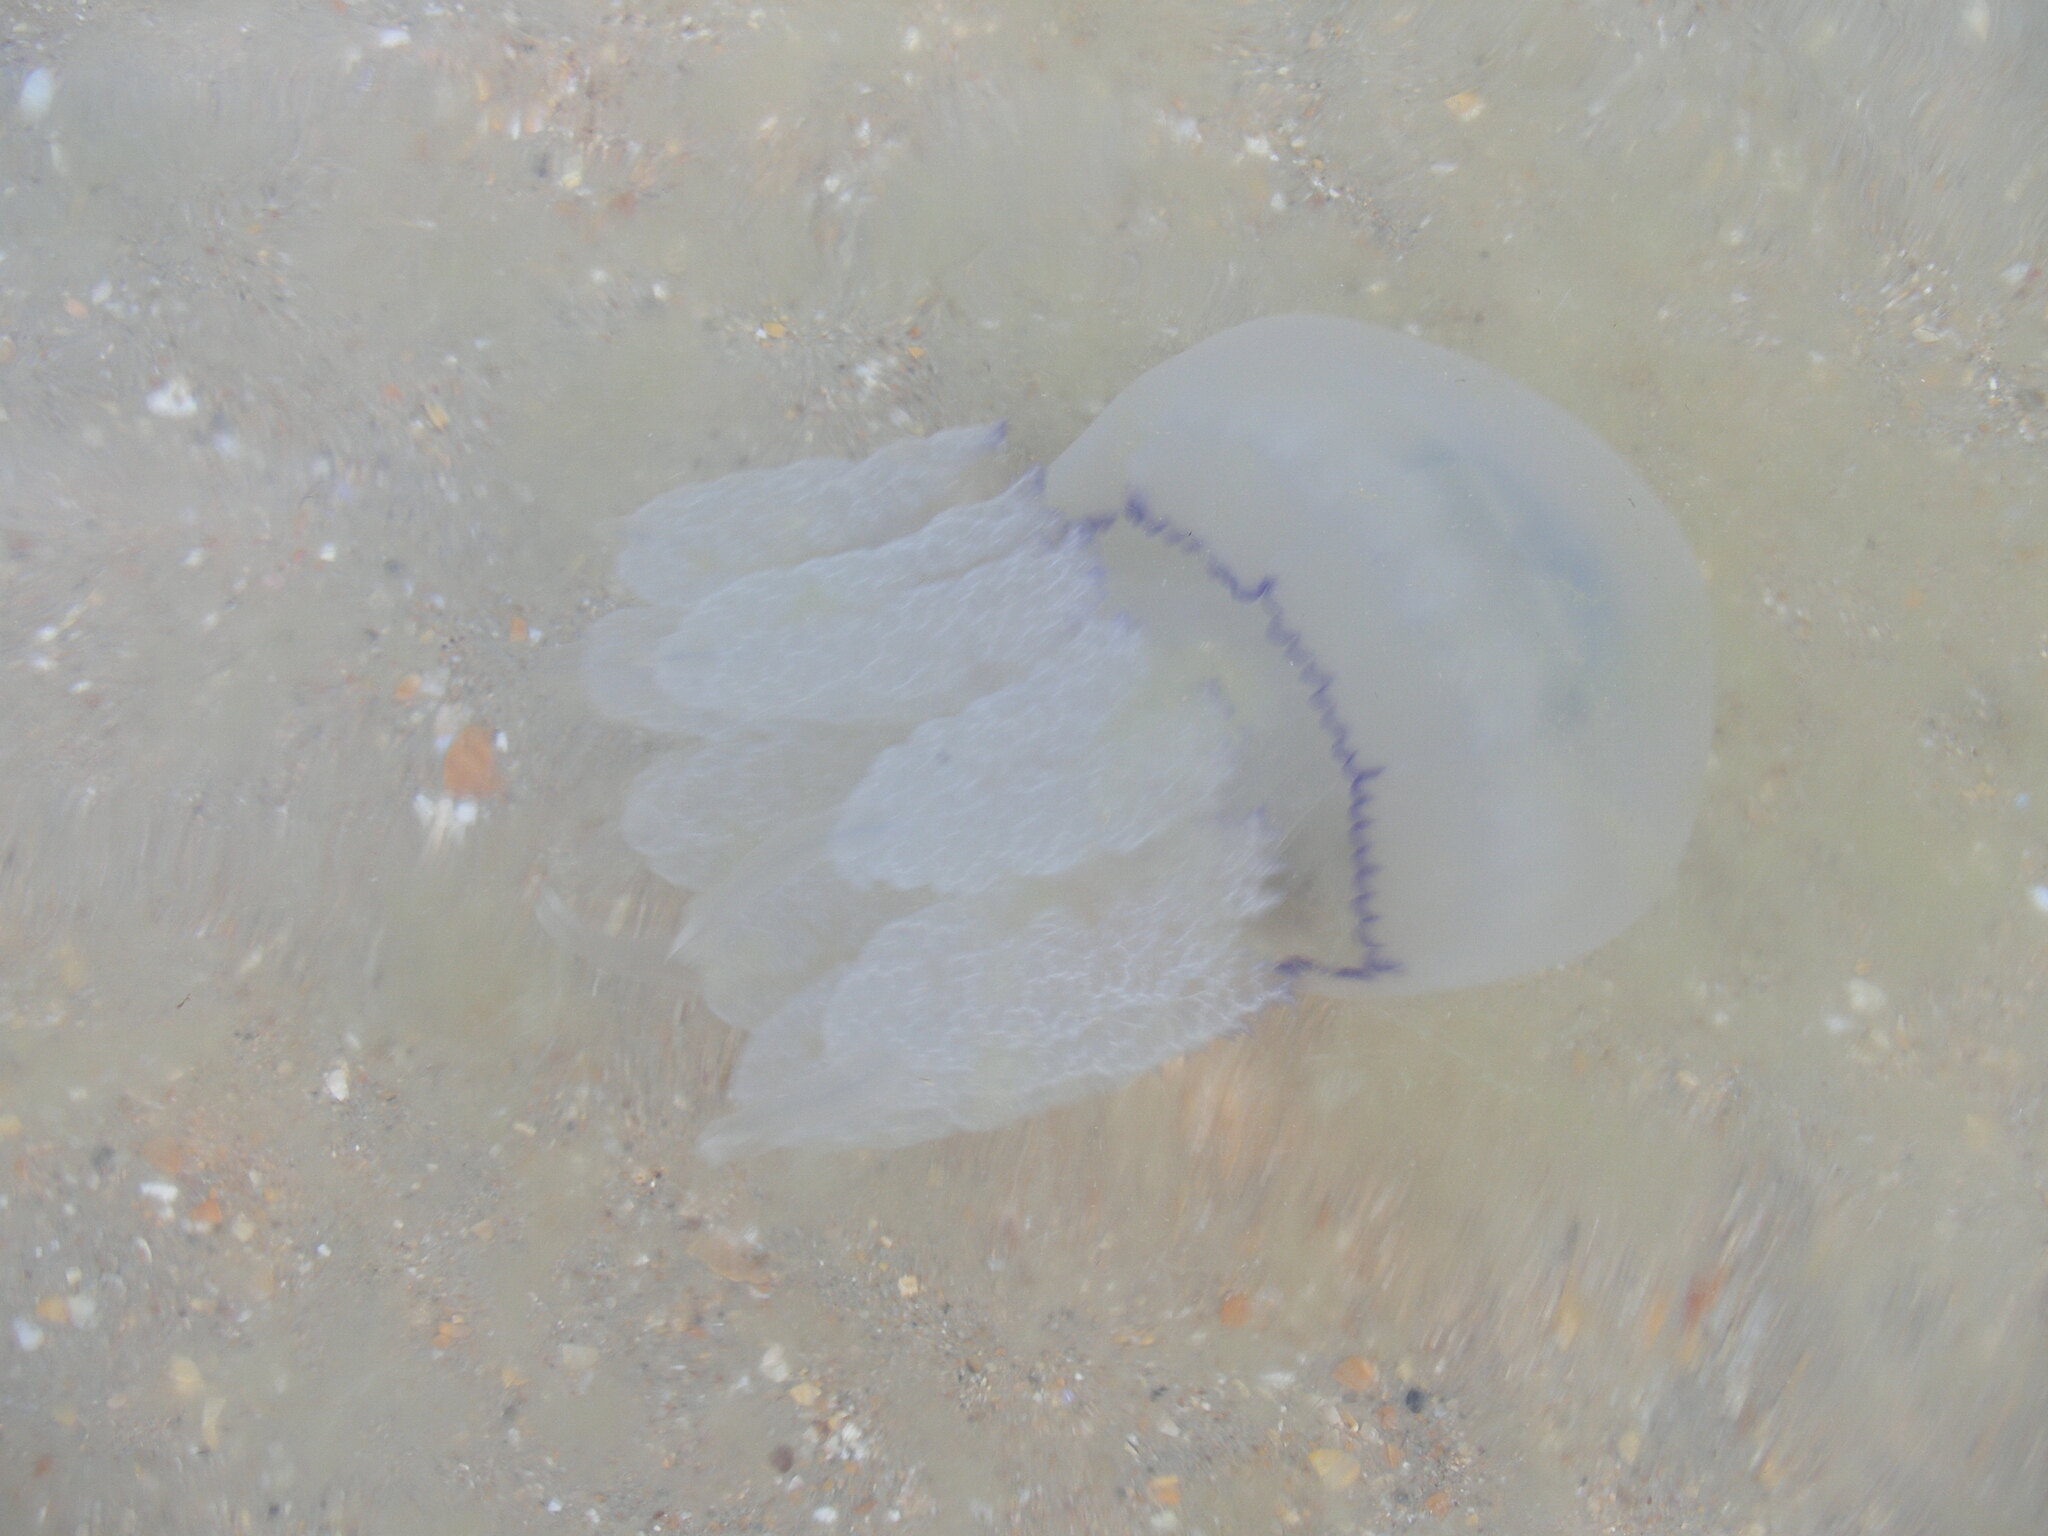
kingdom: Animalia
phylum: Cnidaria
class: Scyphozoa
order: Rhizostomeae
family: Rhizostomatidae
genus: Rhizostoma
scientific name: Rhizostoma pulmo
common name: Barrel jellyfish
